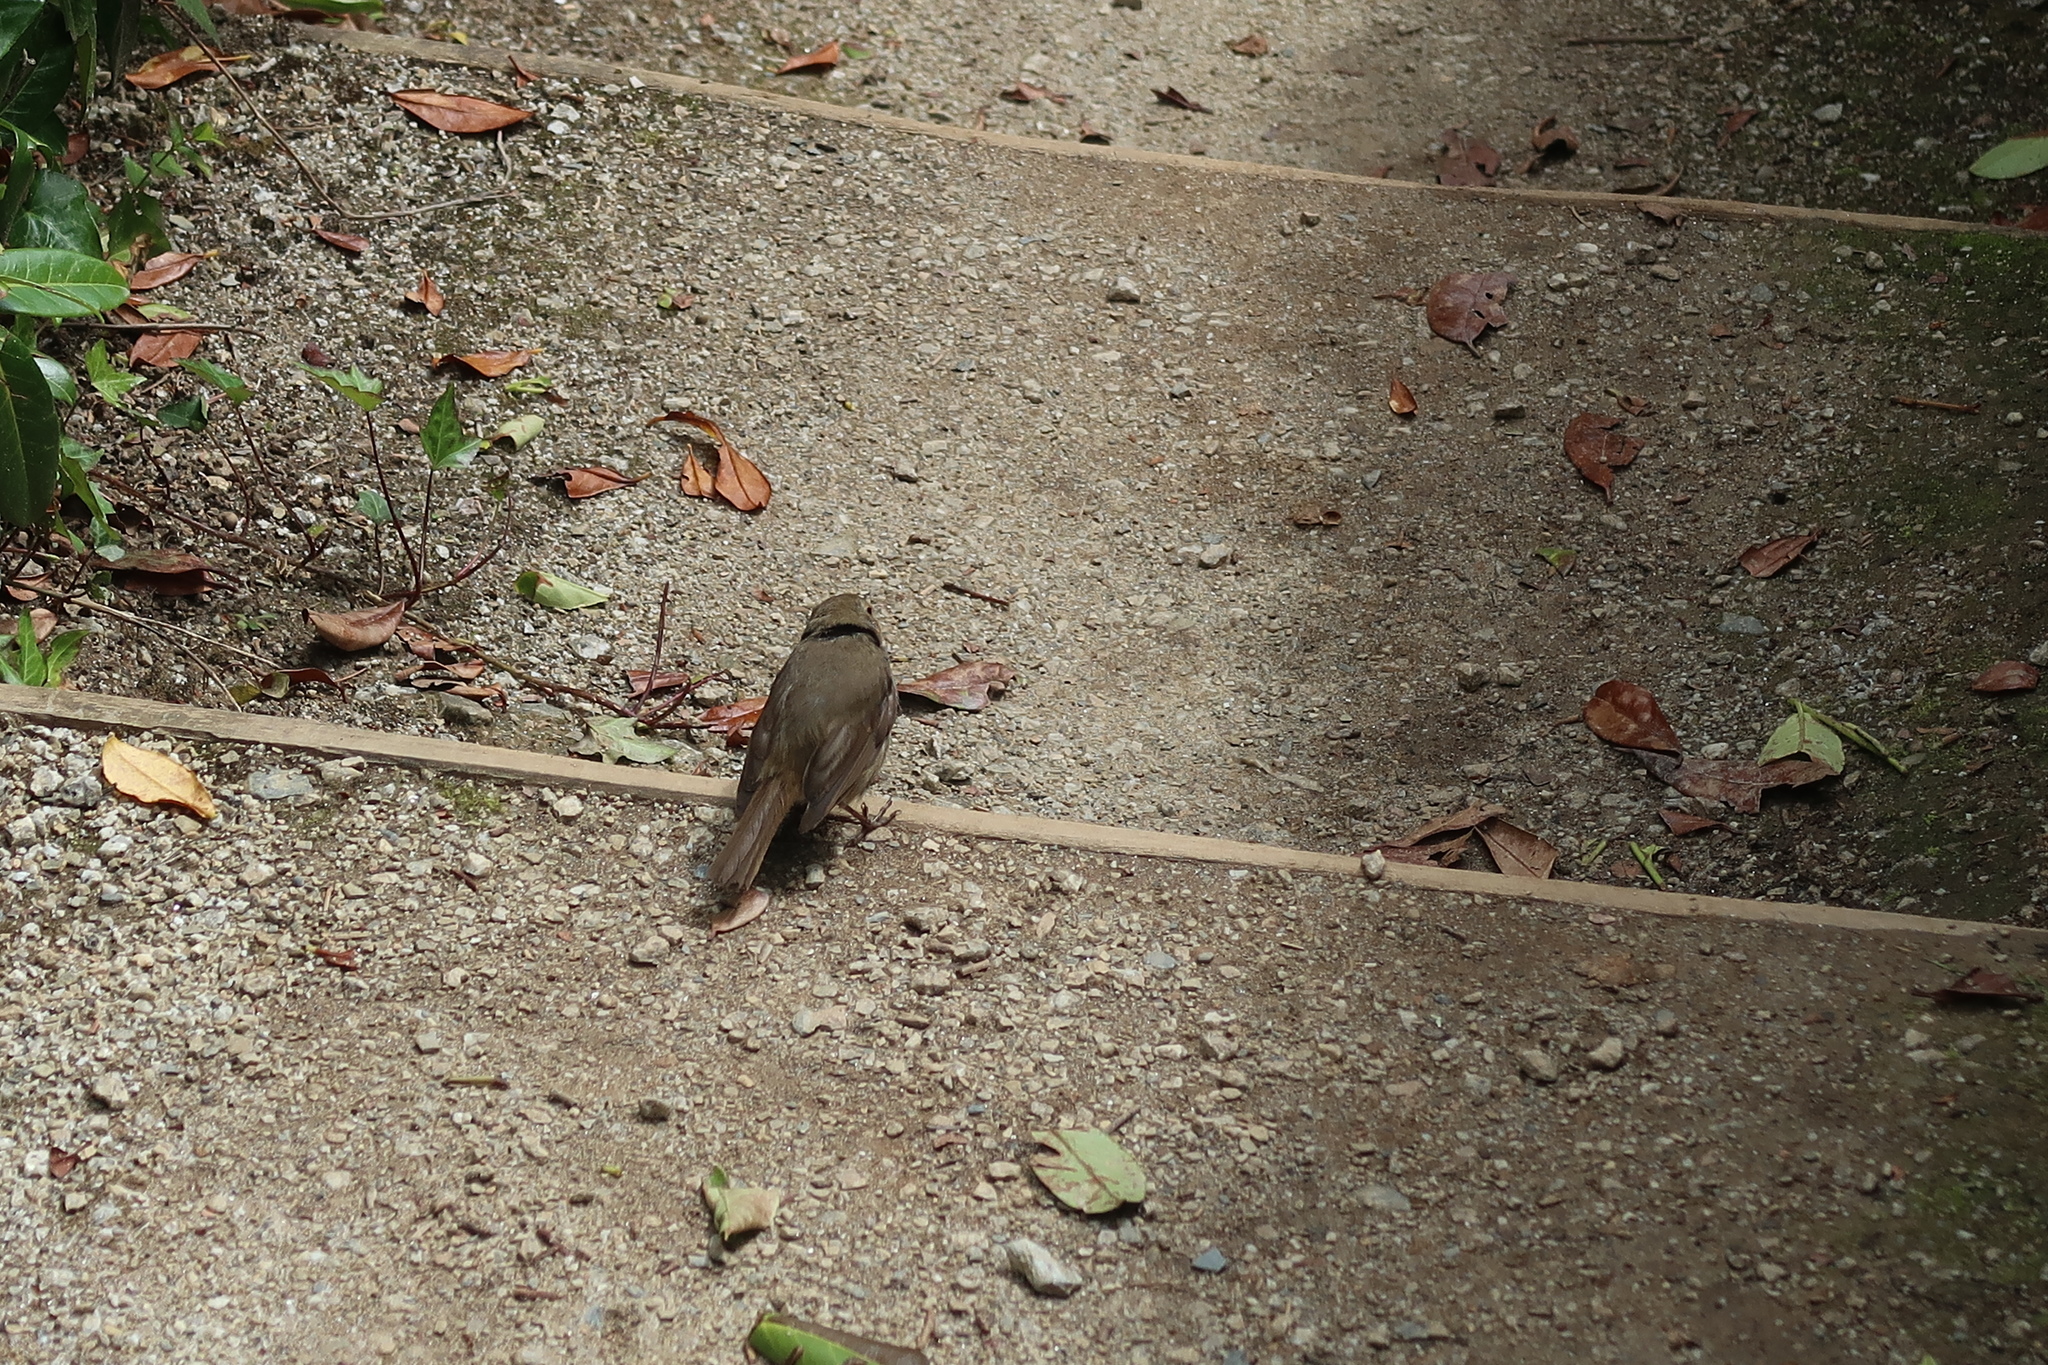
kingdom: Animalia
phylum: Chordata
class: Aves
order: Passeriformes
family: Muscicapidae
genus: Erithacus
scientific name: Erithacus rubecula
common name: European robin
